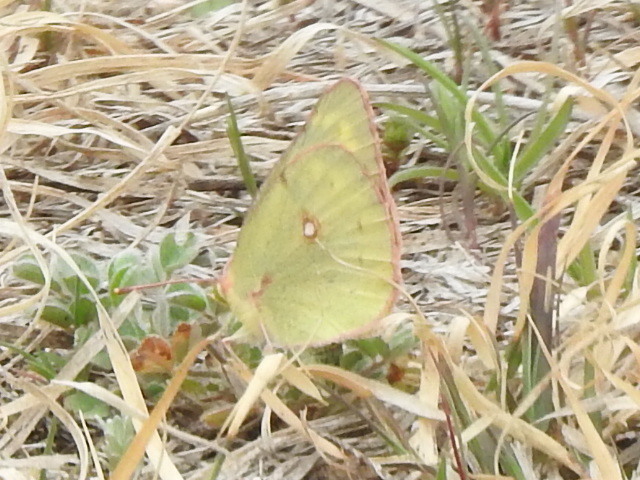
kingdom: Animalia
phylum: Arthropoda
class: Insecta
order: Lepidoptera
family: Pieridae
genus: Colias
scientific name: Colias eurytheme
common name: Alfalfa butterfly
